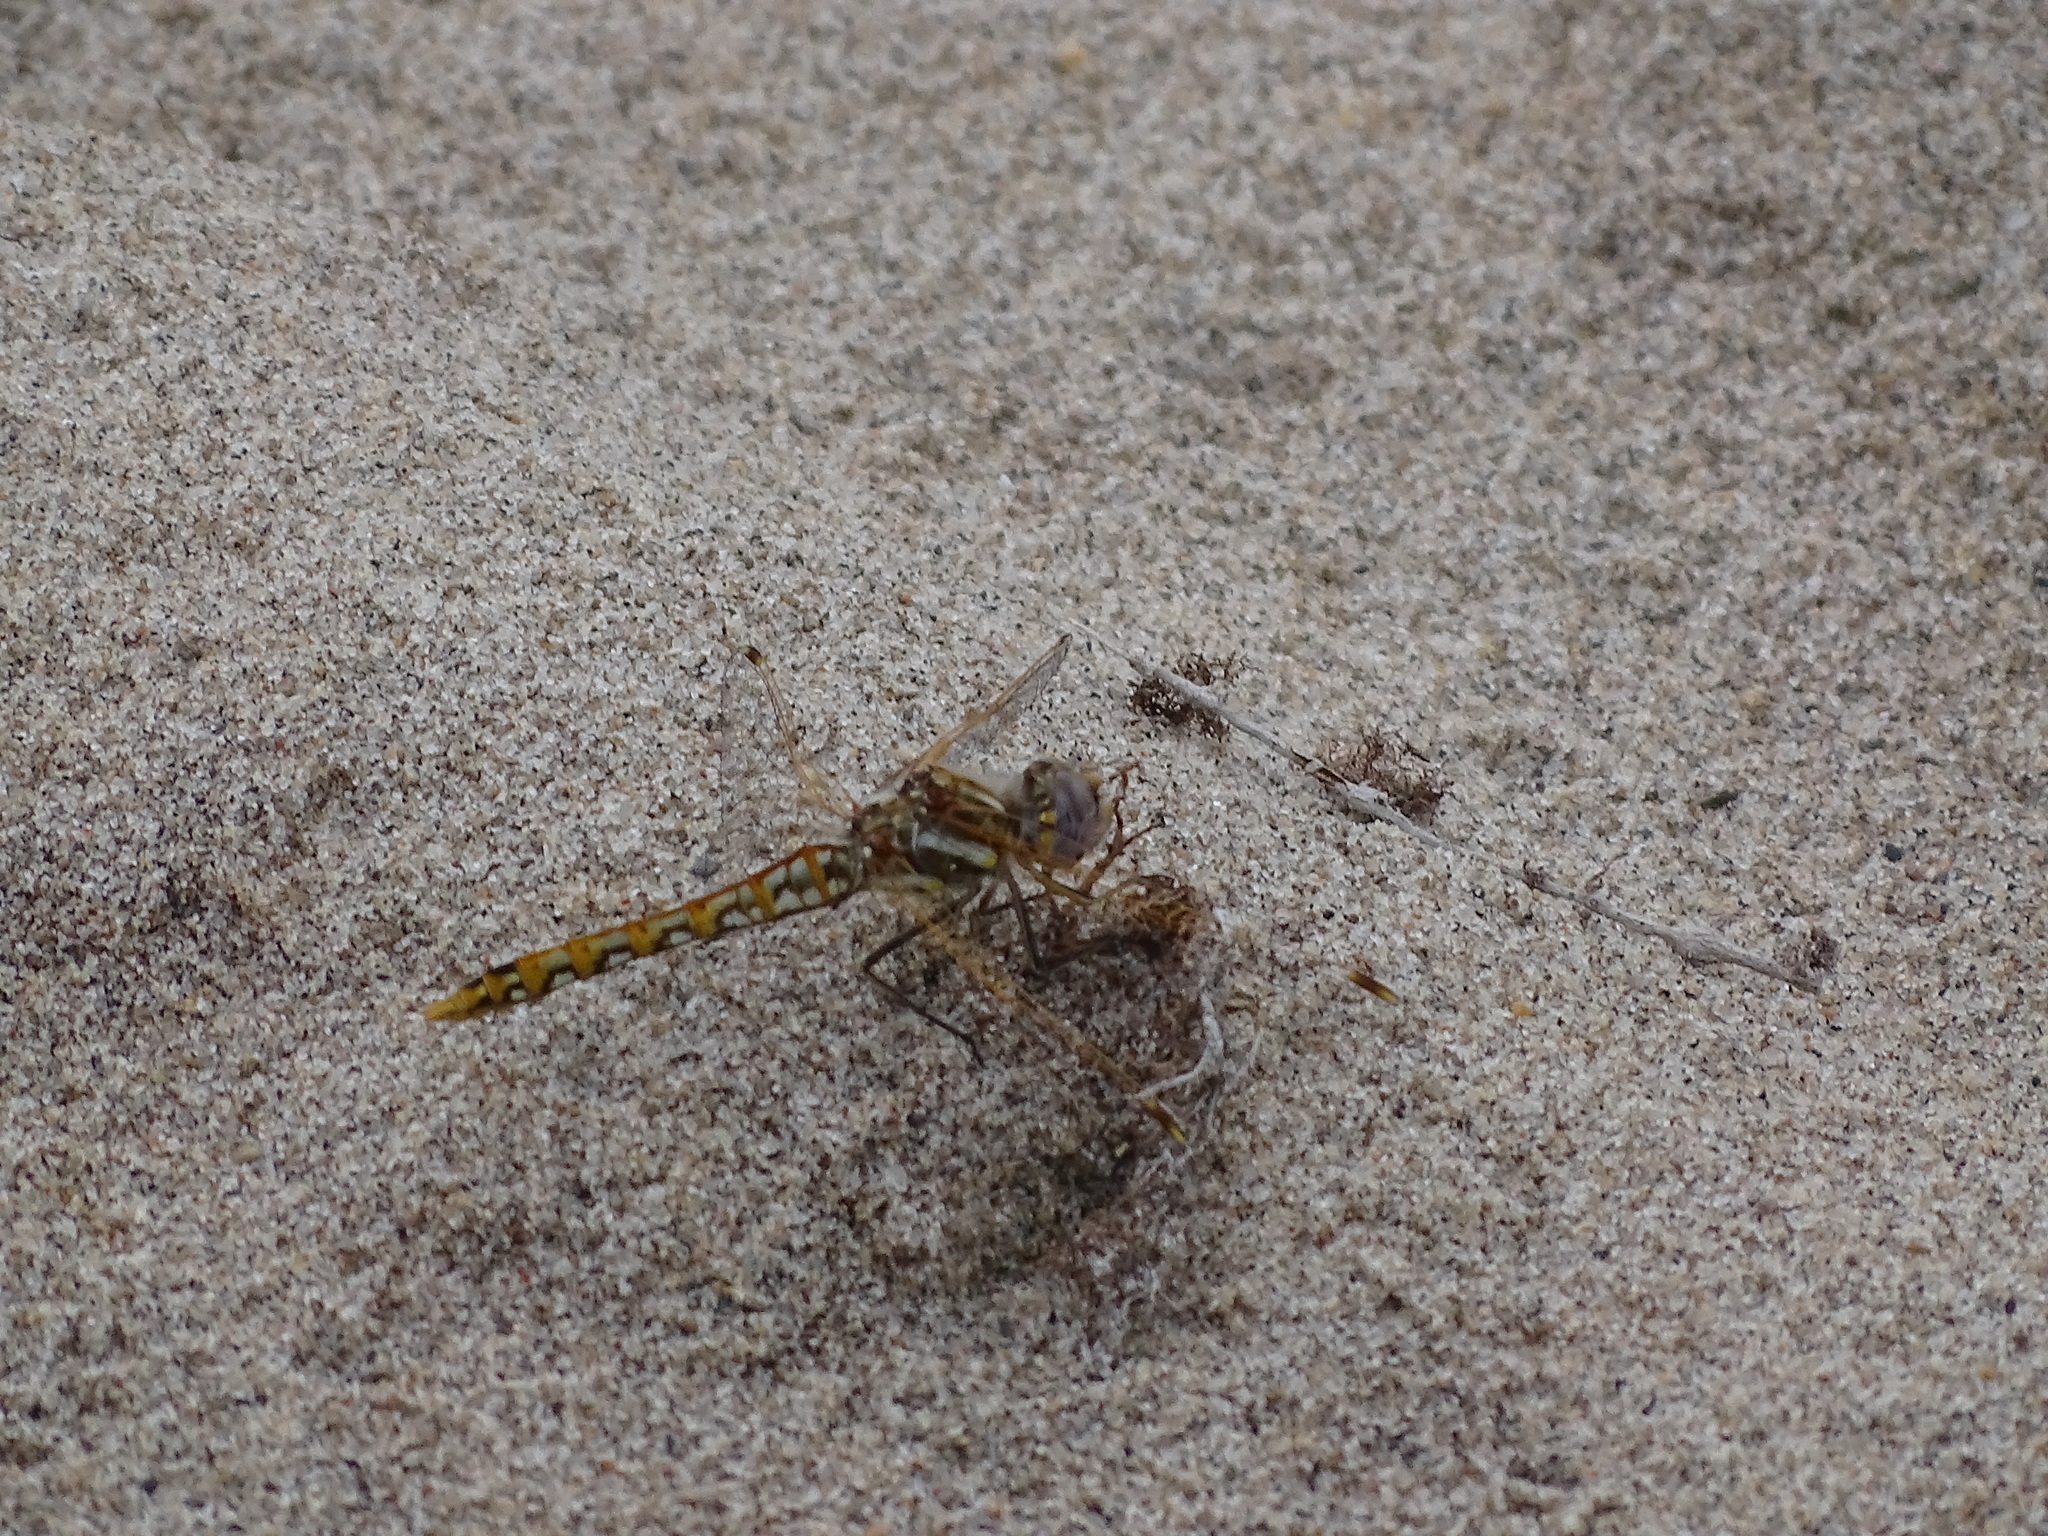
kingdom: Animalia
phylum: Arthropoda
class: Insecta
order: Odonata
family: Libellulidae
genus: Sympetrum
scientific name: Sympetrum corruptum
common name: Variegated meadowhawk
